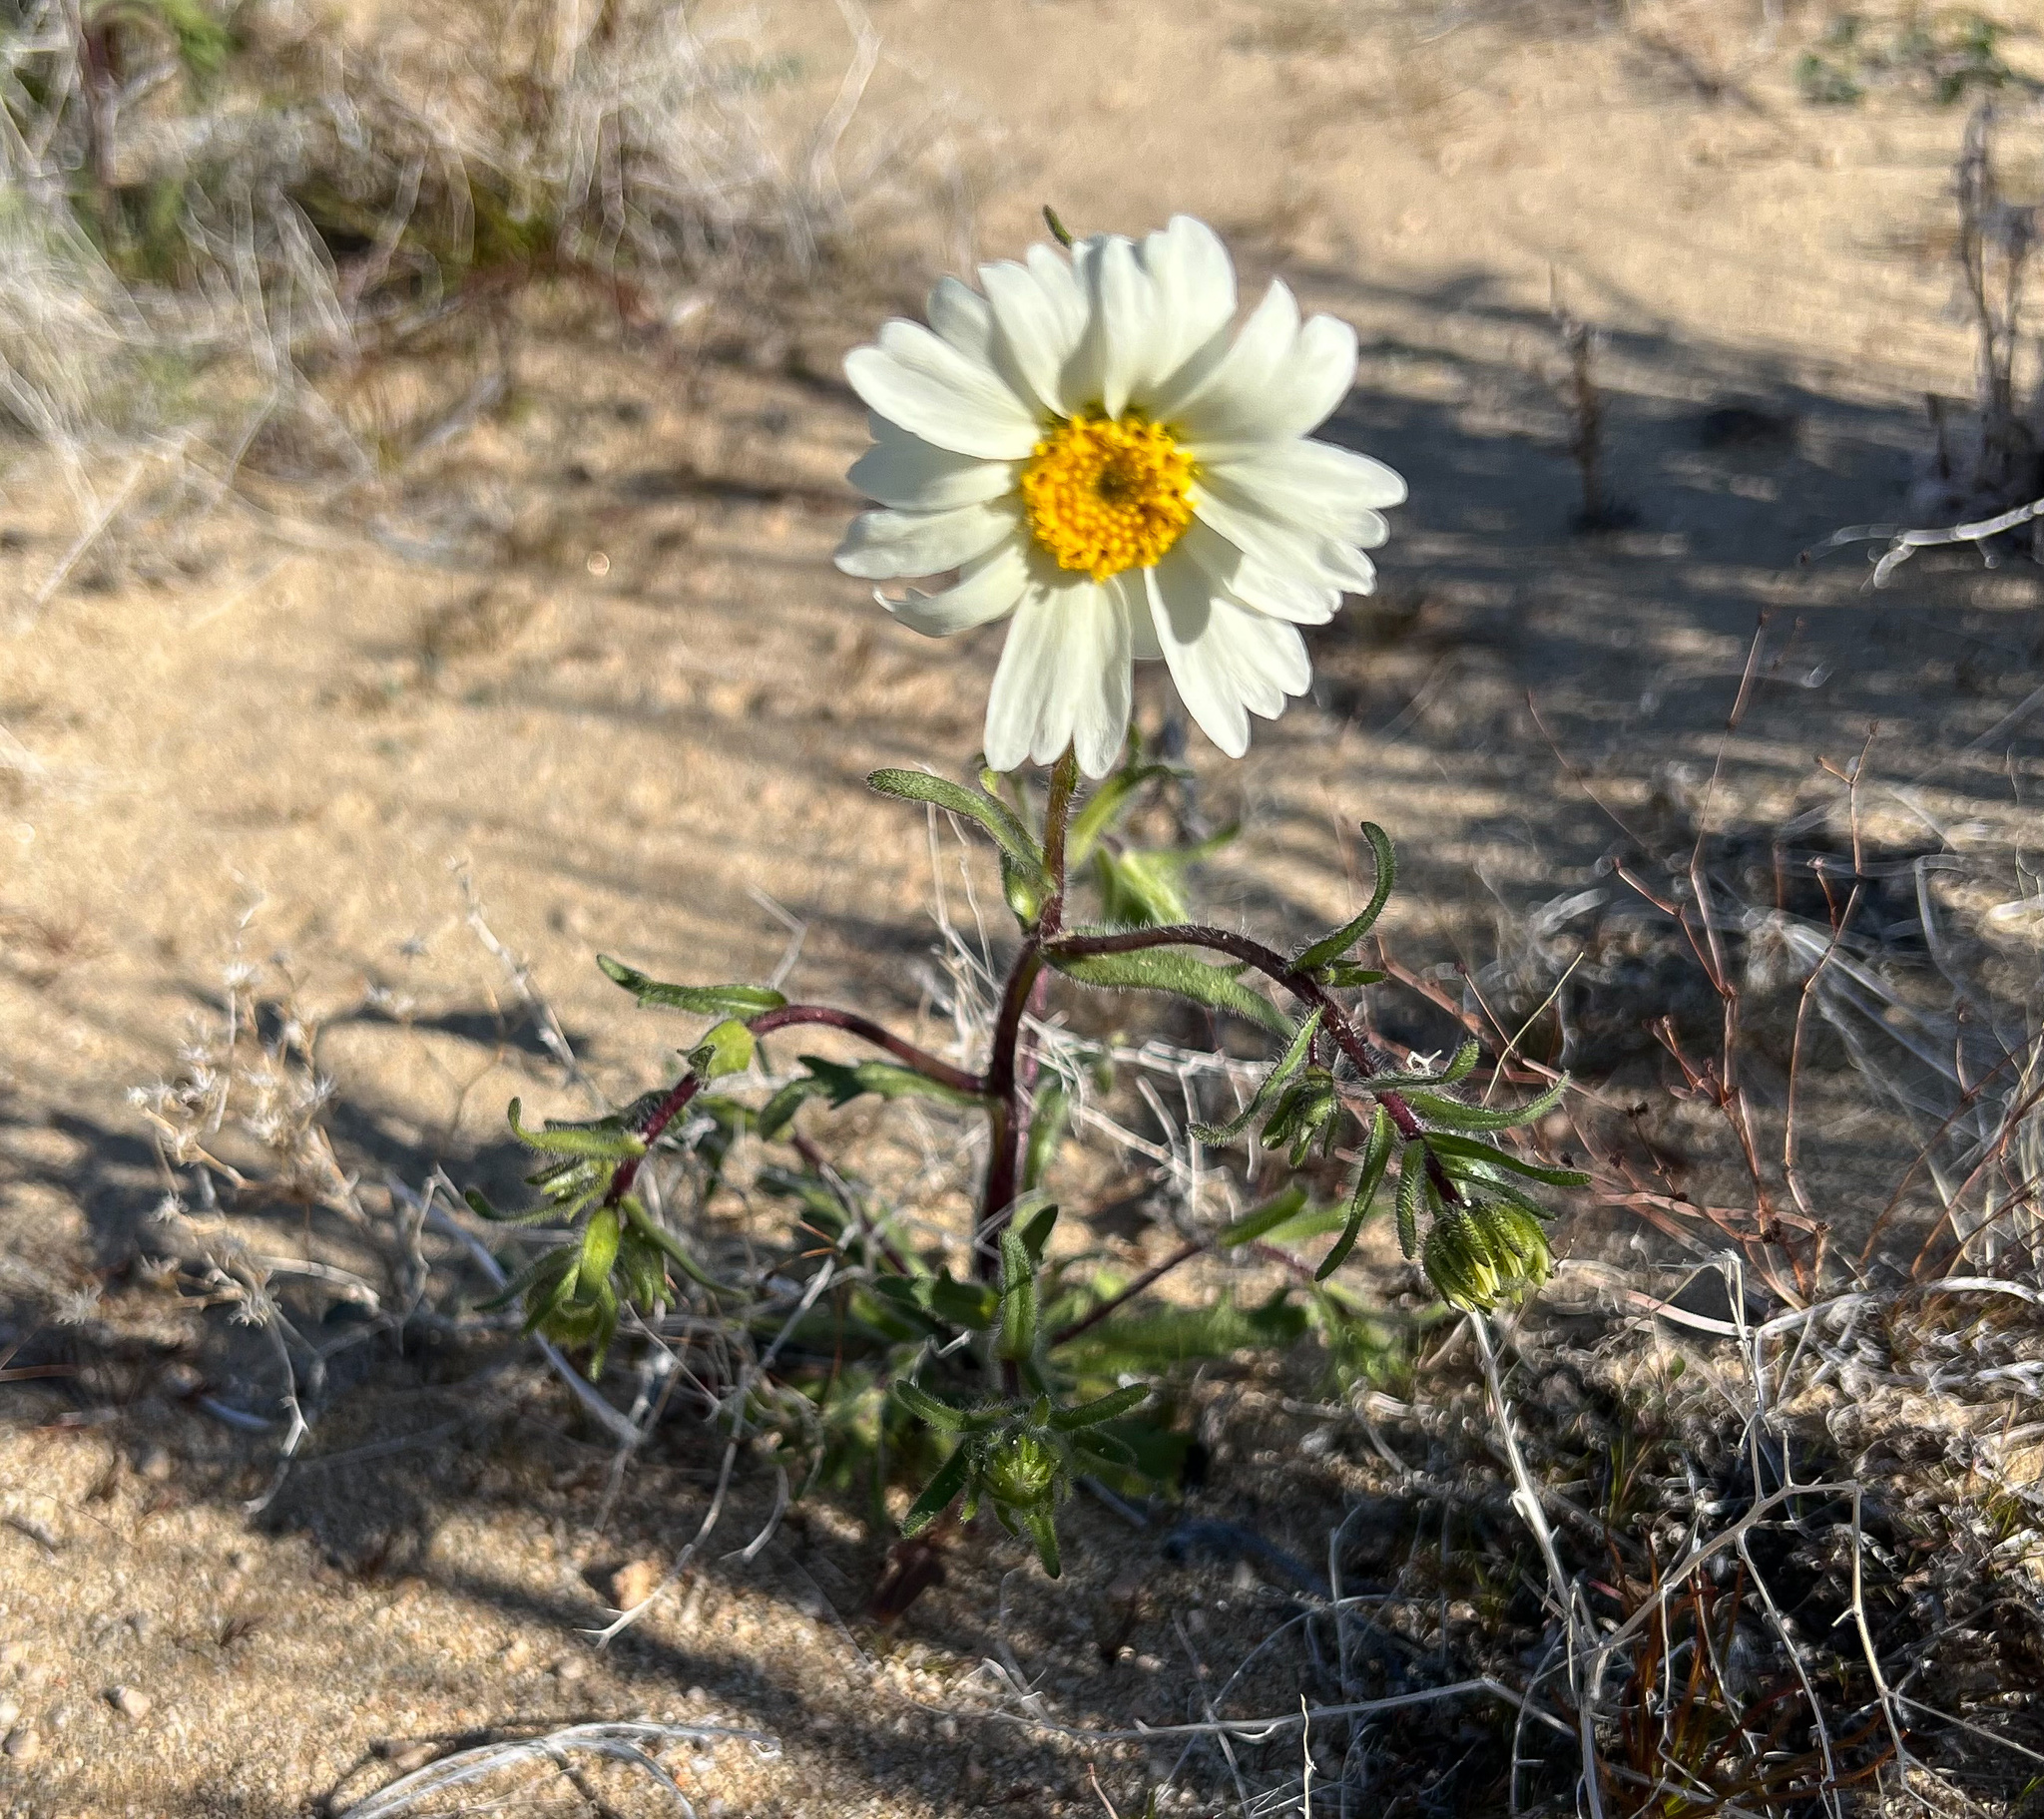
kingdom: Plantae
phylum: Tracheophyta
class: Magnoliopsida
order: Asterales
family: Asteraceae
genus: Layia
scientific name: Layia glandulosa
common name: White layia
